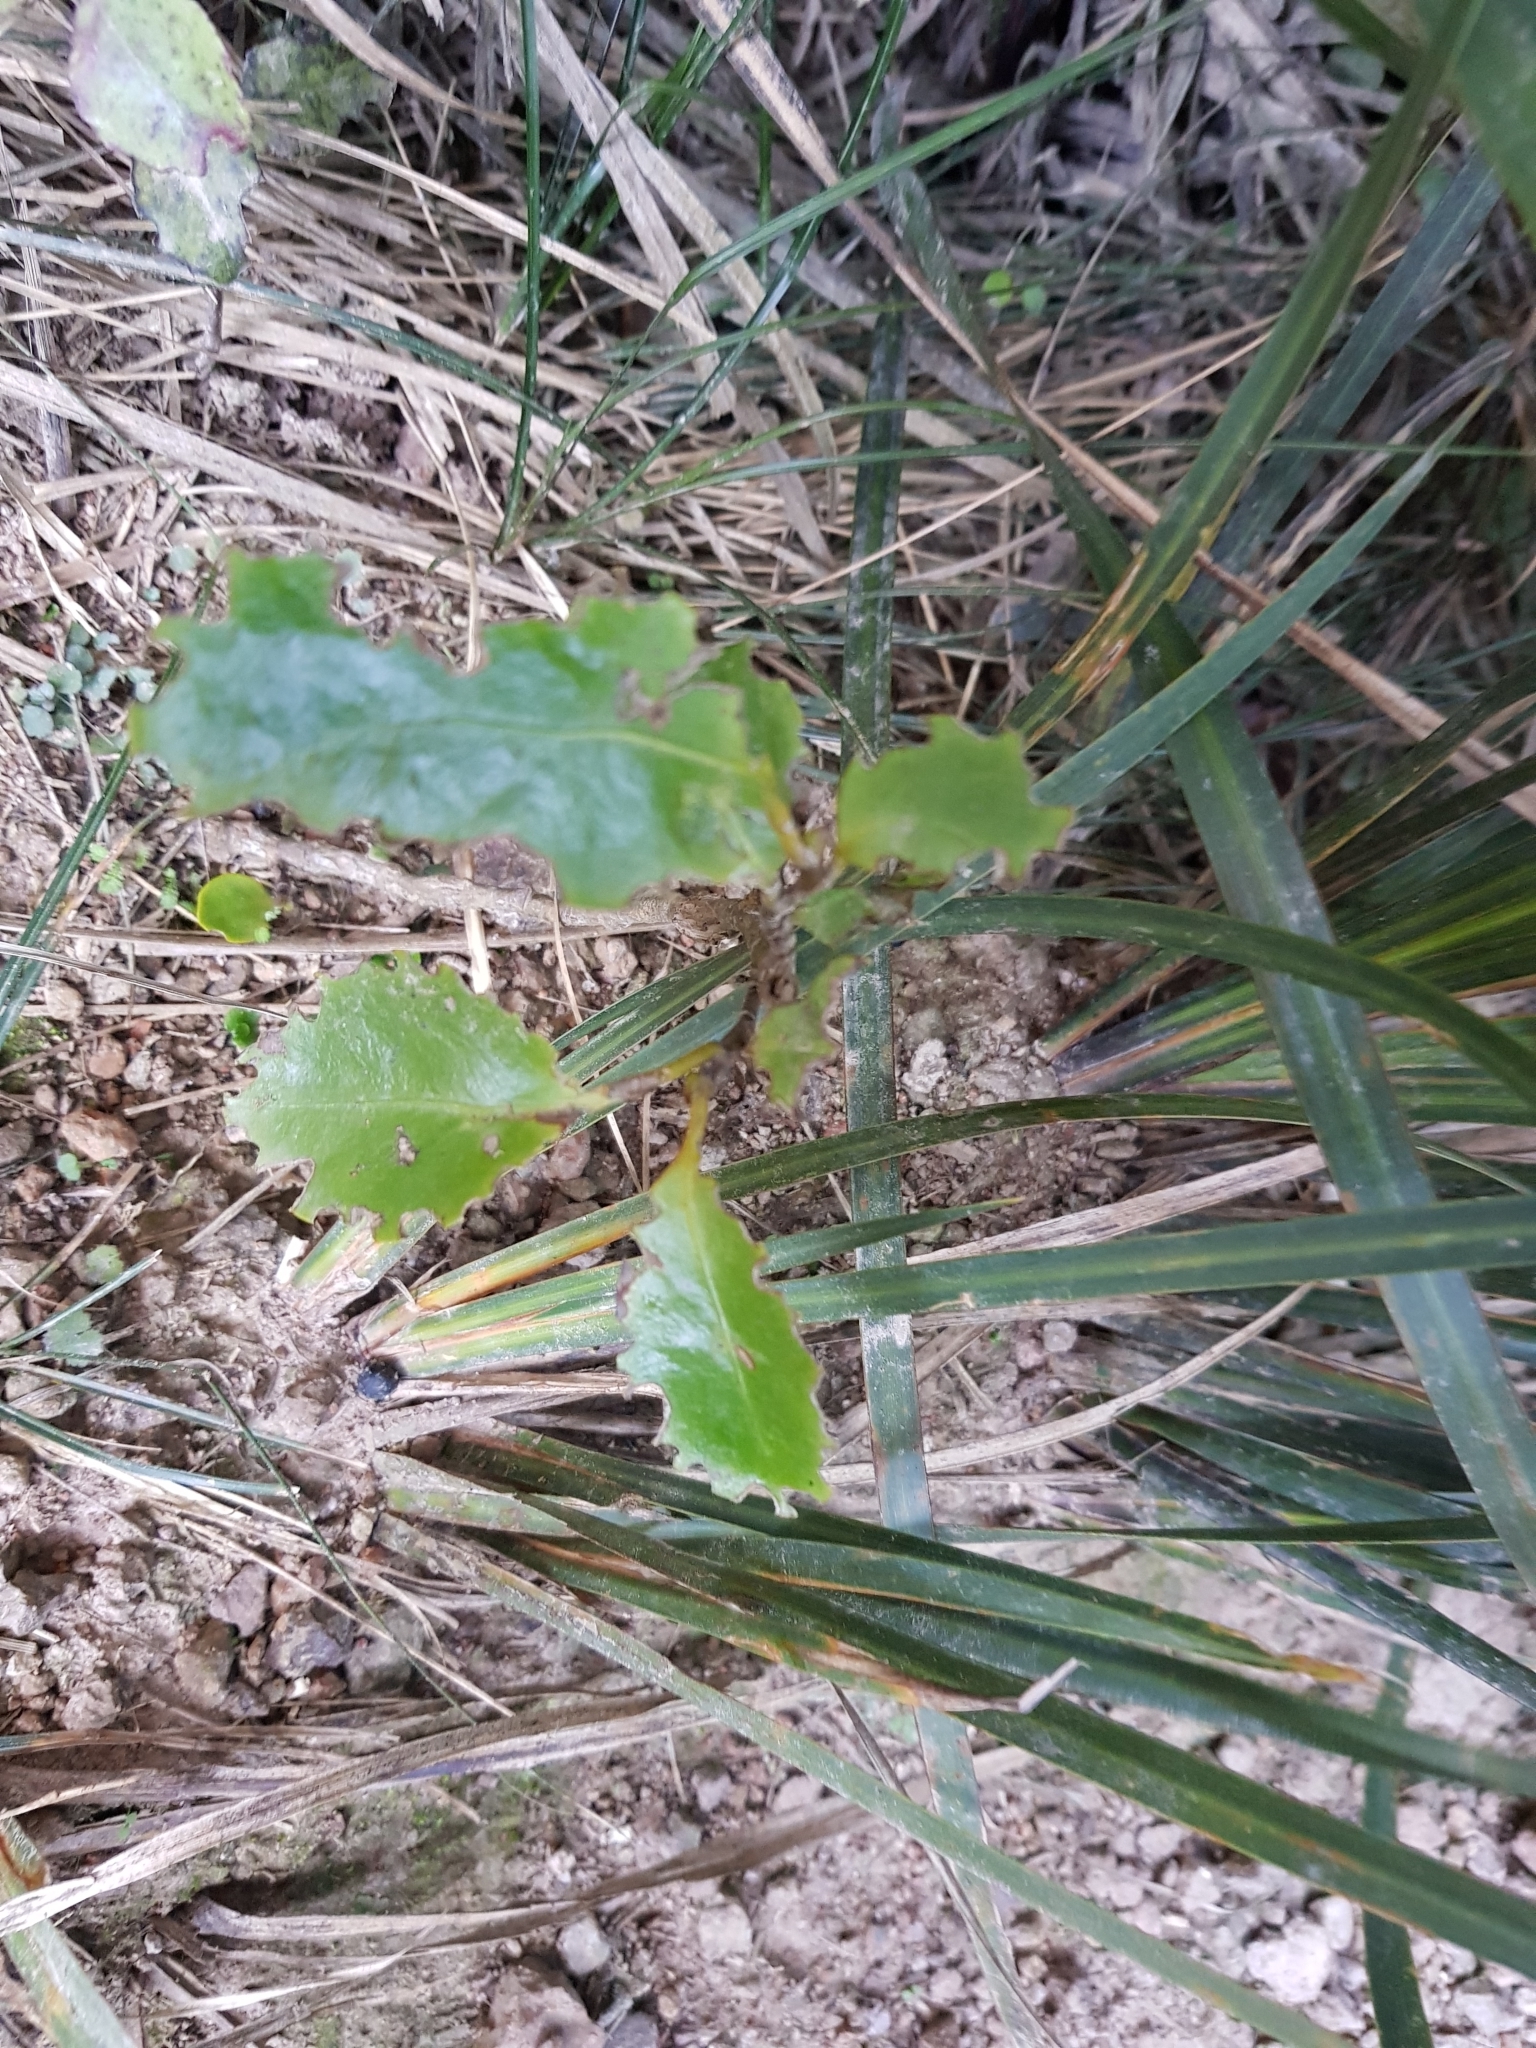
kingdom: Plantae
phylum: Tracheophyta
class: Magnoliopsida
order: Apiales
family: Griseliniaceae
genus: Griselinia
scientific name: Griselinia littoralis
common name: New zealand broadleaf
